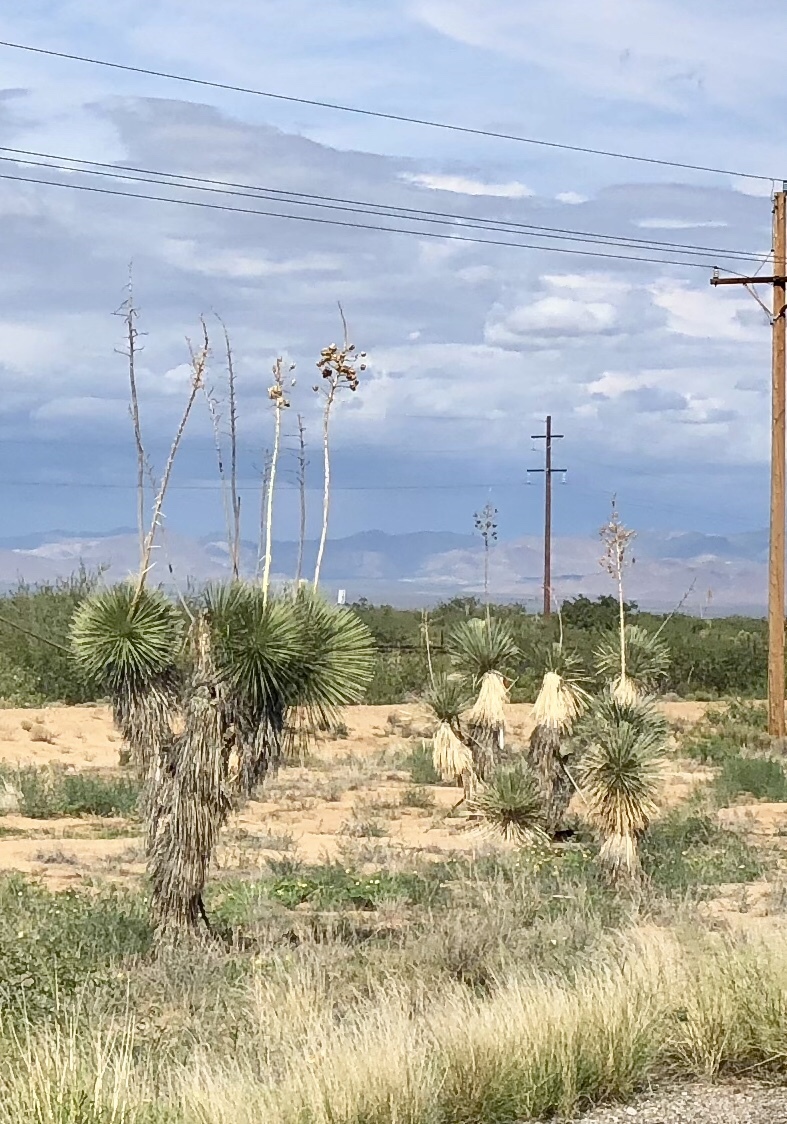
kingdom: Plantae
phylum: Tracheophyta
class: Liliopsida
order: Asparagales
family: Asparagaceae
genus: Yucca
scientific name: Yucca elata
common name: Palmella
